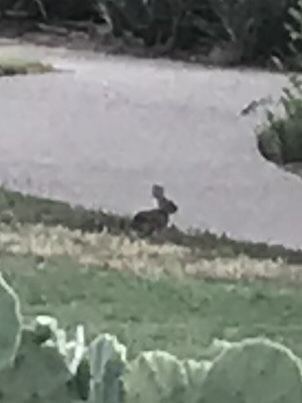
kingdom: Animalia
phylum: Chordata
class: Mammalia
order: Lagomorpha
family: Leporidae
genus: Sylvilagus
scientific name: Sylvilagus floridanus
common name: Eastern cottontail
